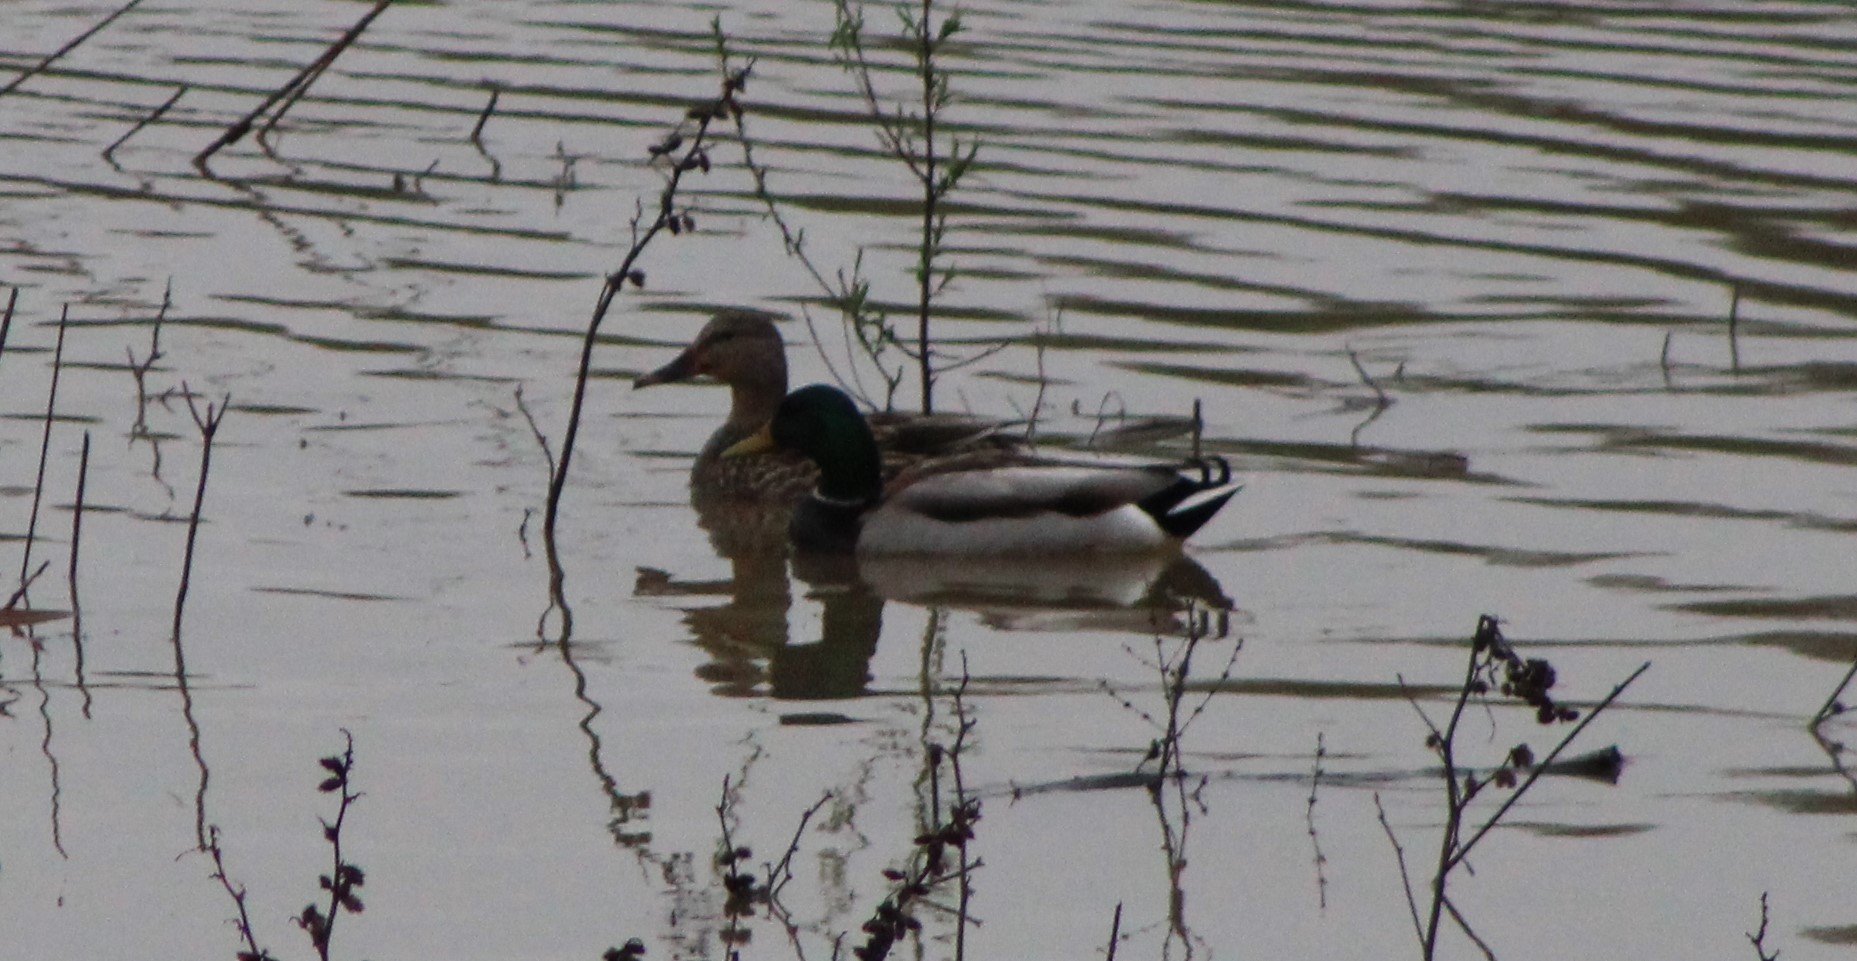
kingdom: Animalia
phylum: Chordata
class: Aves
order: Anseriformes
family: Anatidae
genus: Anas
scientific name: Anas platyrhynchos
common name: Mallard
